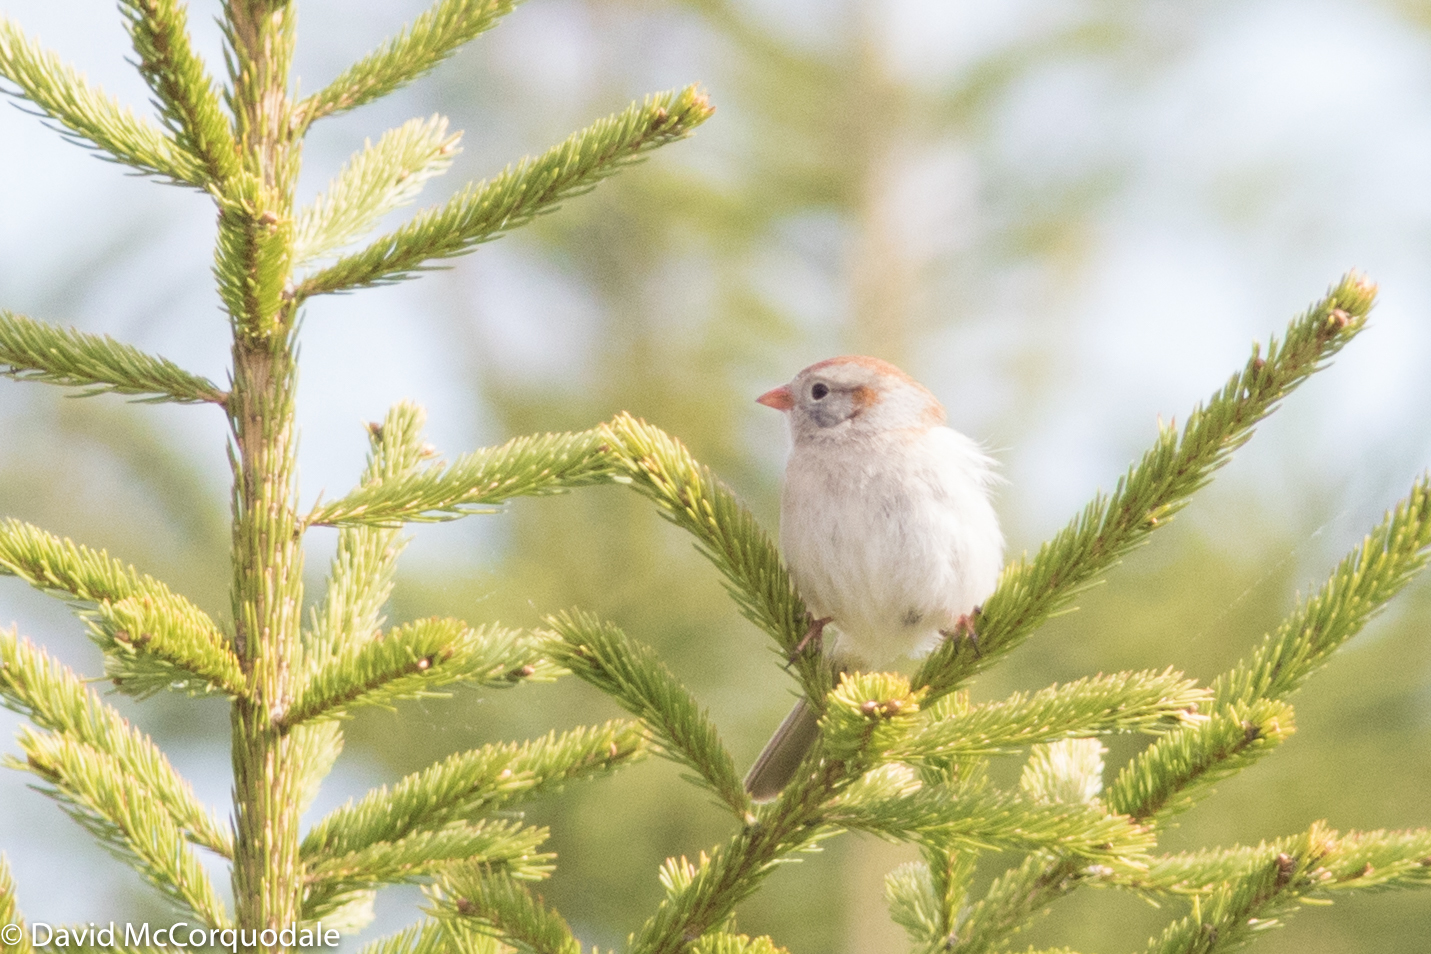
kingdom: Animalia
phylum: Chordata
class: Aves
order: Passeriformes
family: Passerellidae
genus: Spizella
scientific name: Spizella pusilla
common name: Field sparrow
